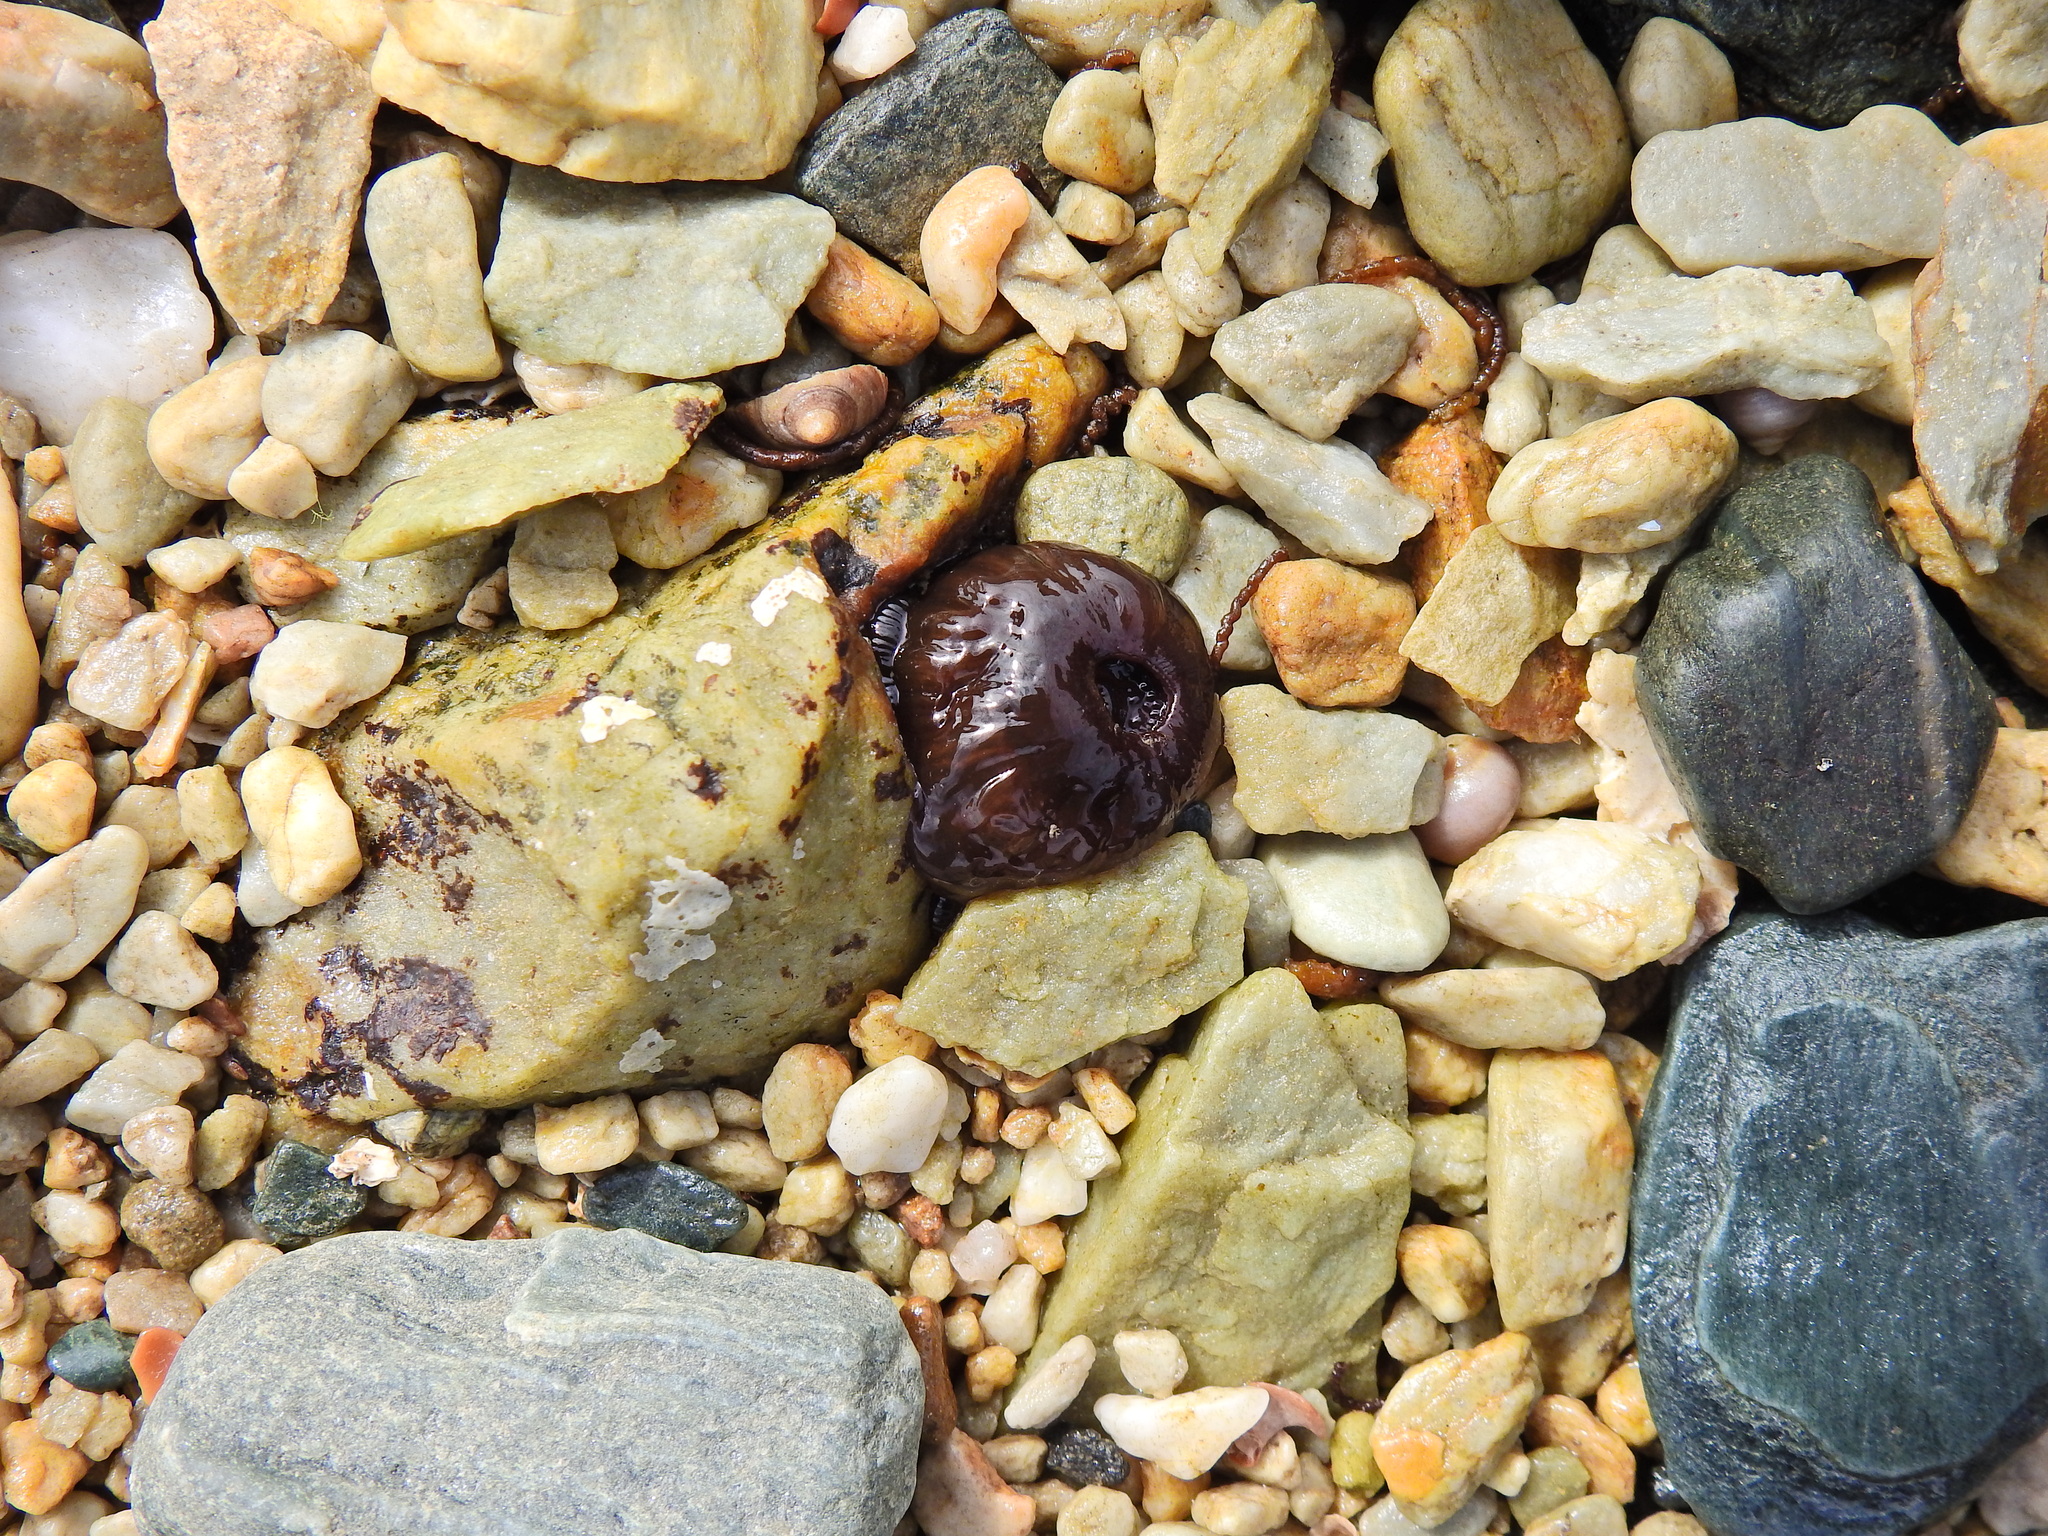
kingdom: Animalia
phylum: Cnidaria
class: Anthozoa
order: Actiniaria
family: Actiniidae
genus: Actinia
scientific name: Actinia equina
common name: Beadlet anemone
